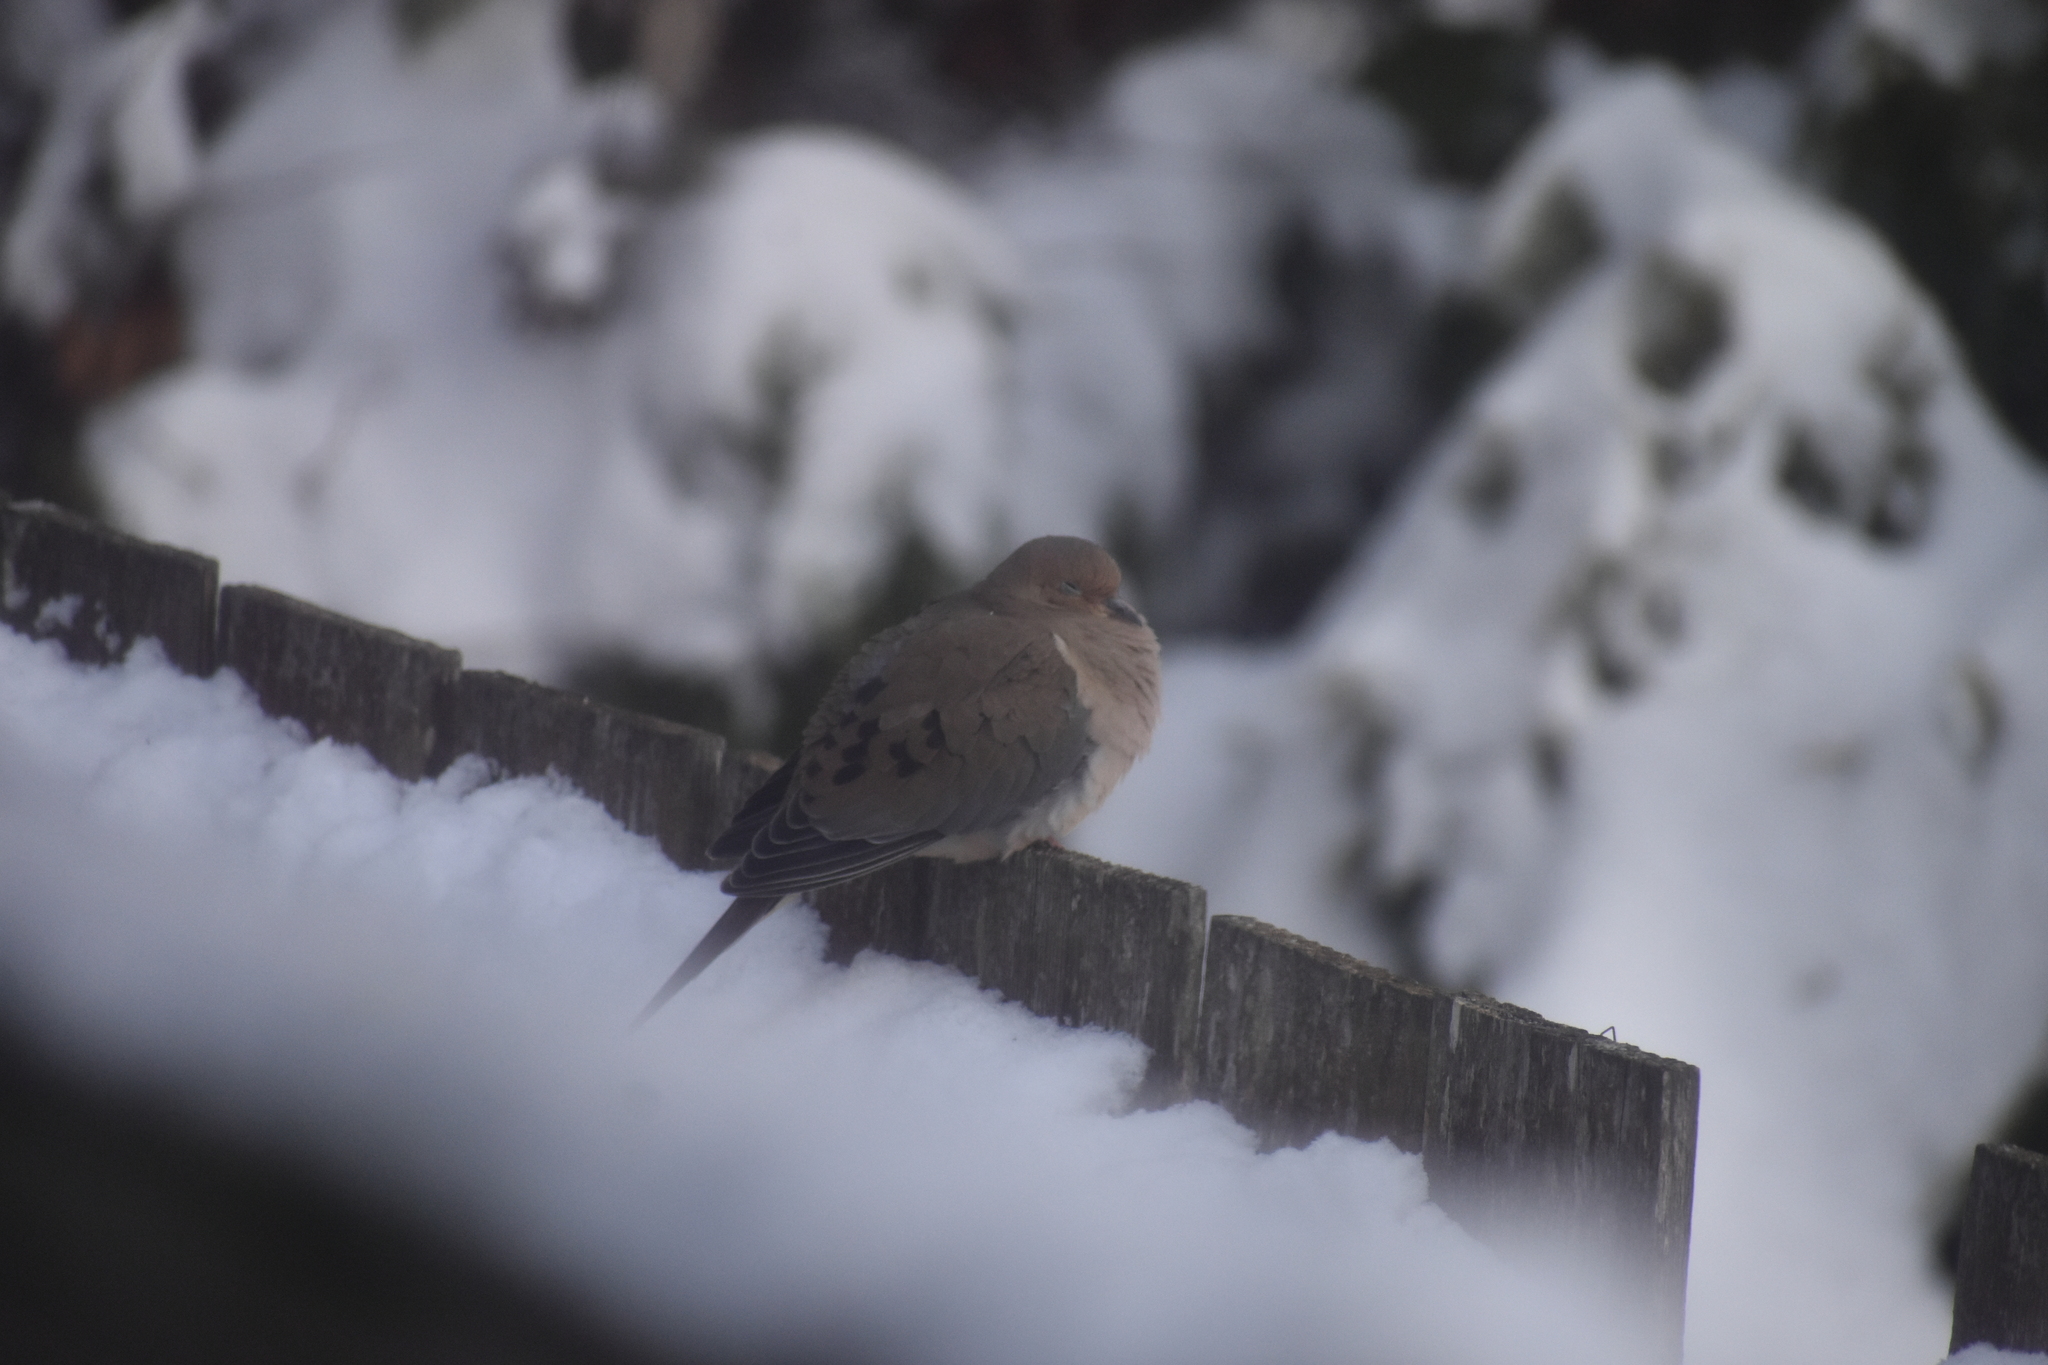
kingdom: Animalia
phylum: Chordata
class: Aves
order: Columbiformes
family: Columbidae
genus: Zenaida
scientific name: Zenaida macroura
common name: Mourning dove
